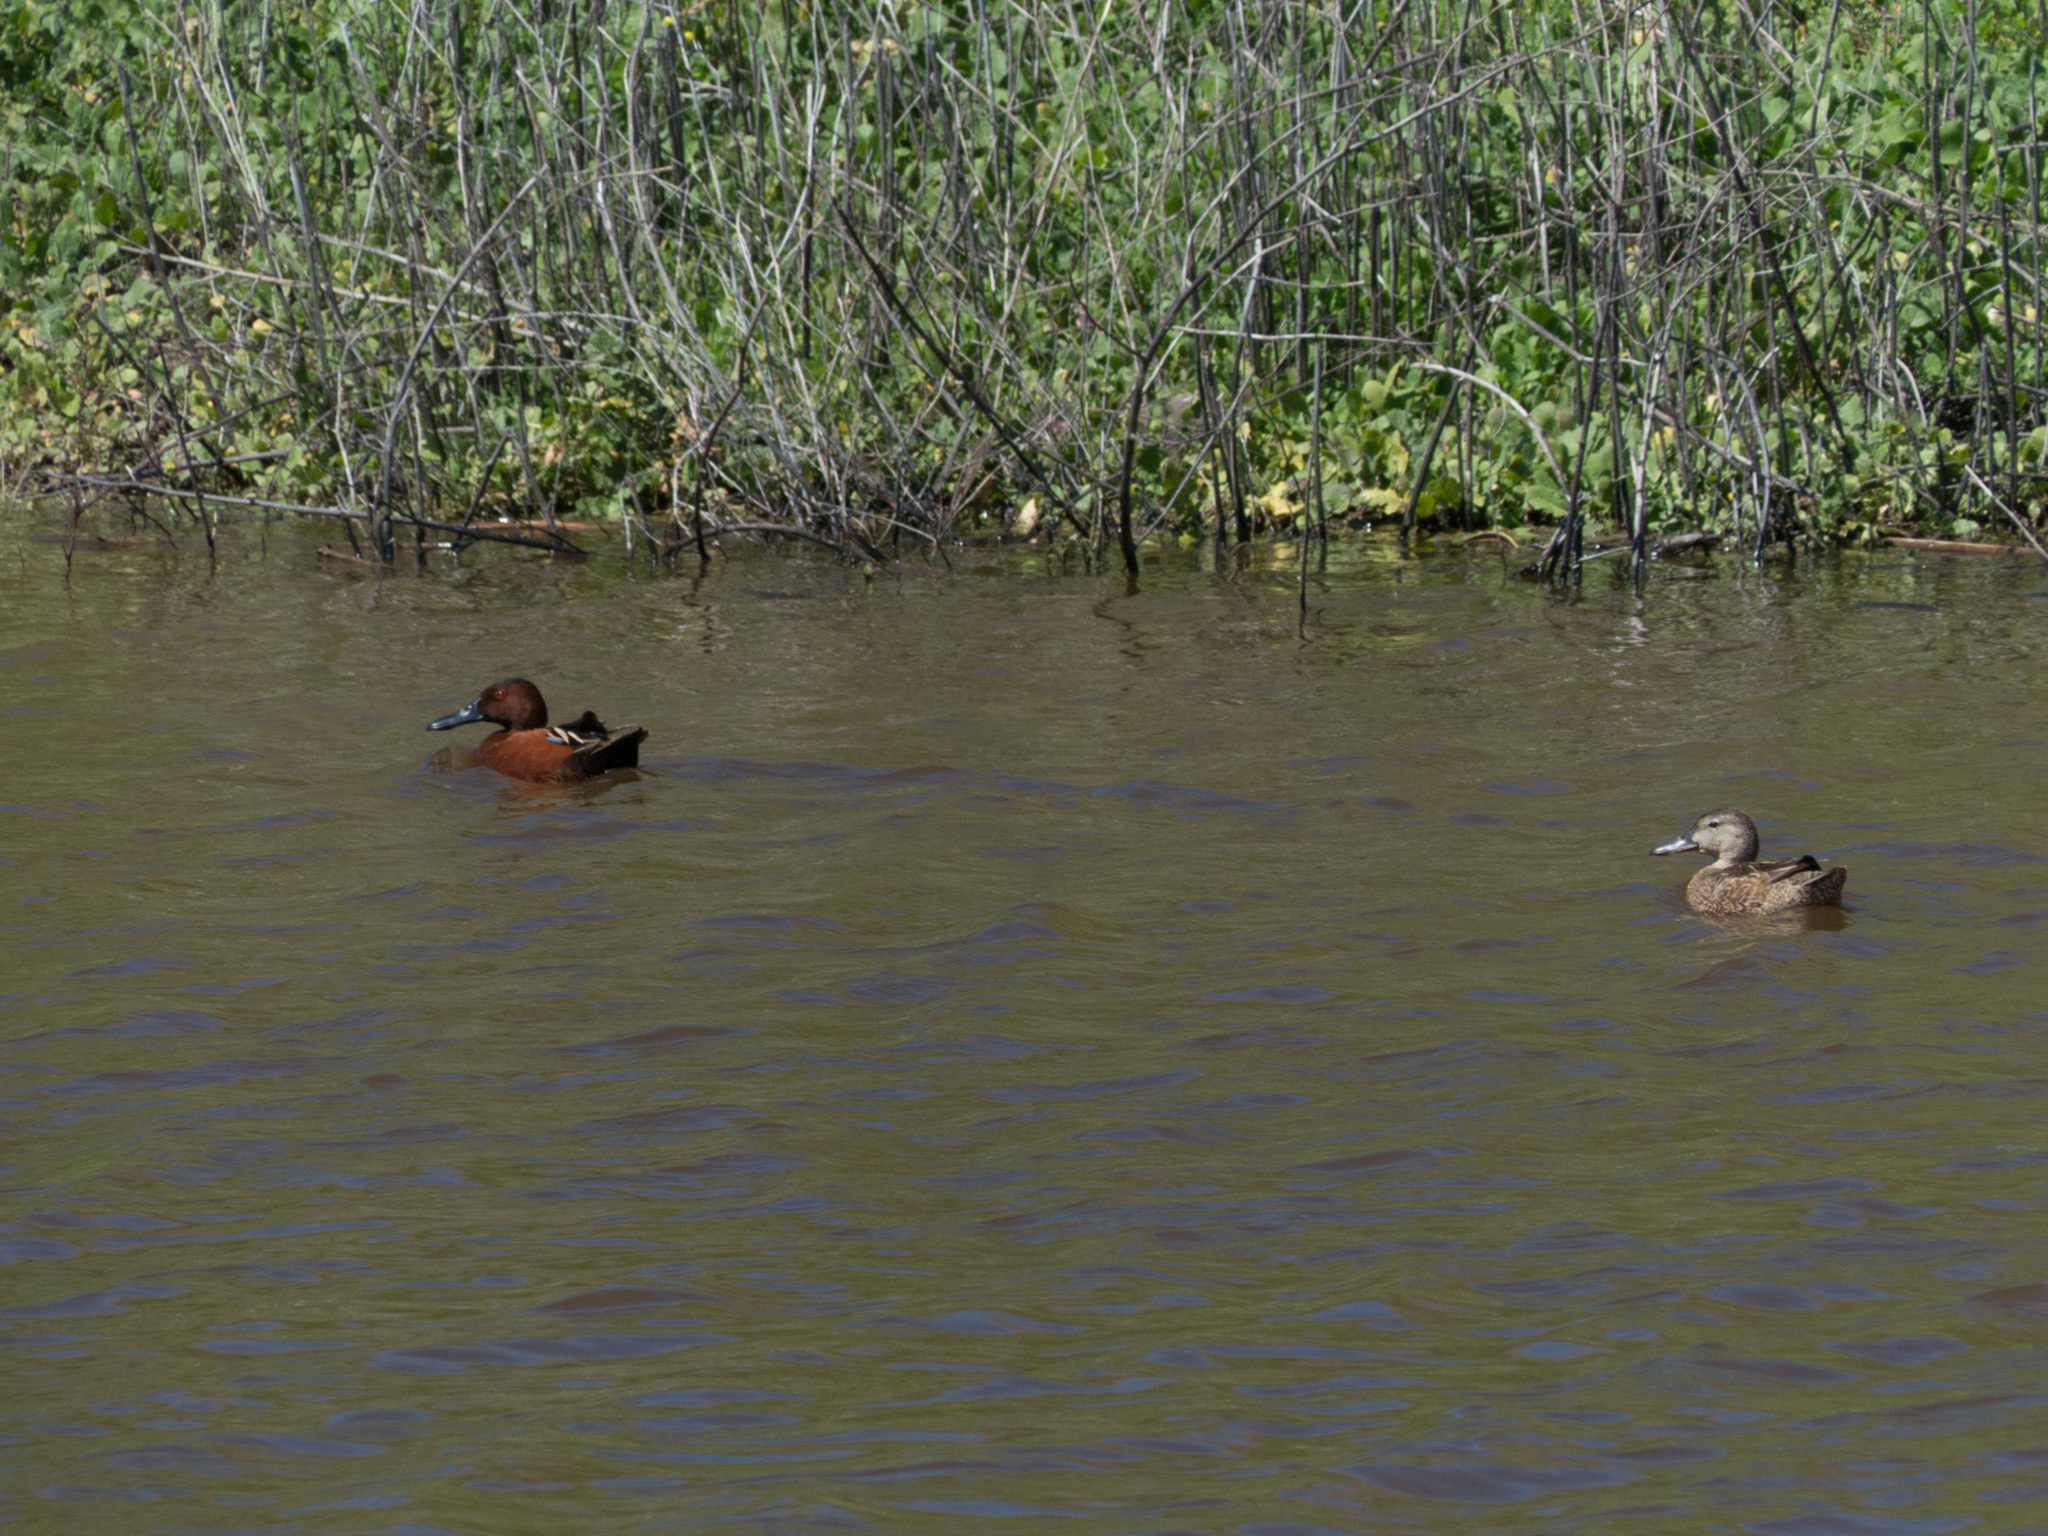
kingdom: Animalia
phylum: Chordata
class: Aves
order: Anseriformes
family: Anatidae
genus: Spatula
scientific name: Spatula cyanoptera
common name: Cinnamon teal
